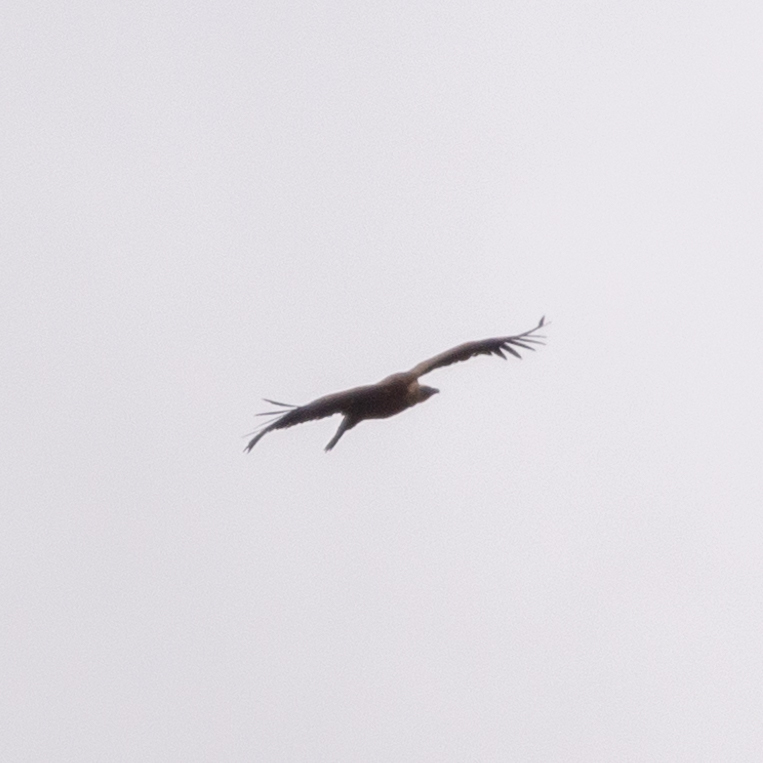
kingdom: Animalia
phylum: Chordata
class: Aves
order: Accipitriformes
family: Accipitridae
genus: Gyps
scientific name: Gyps fulvus
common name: Griffon vulture
